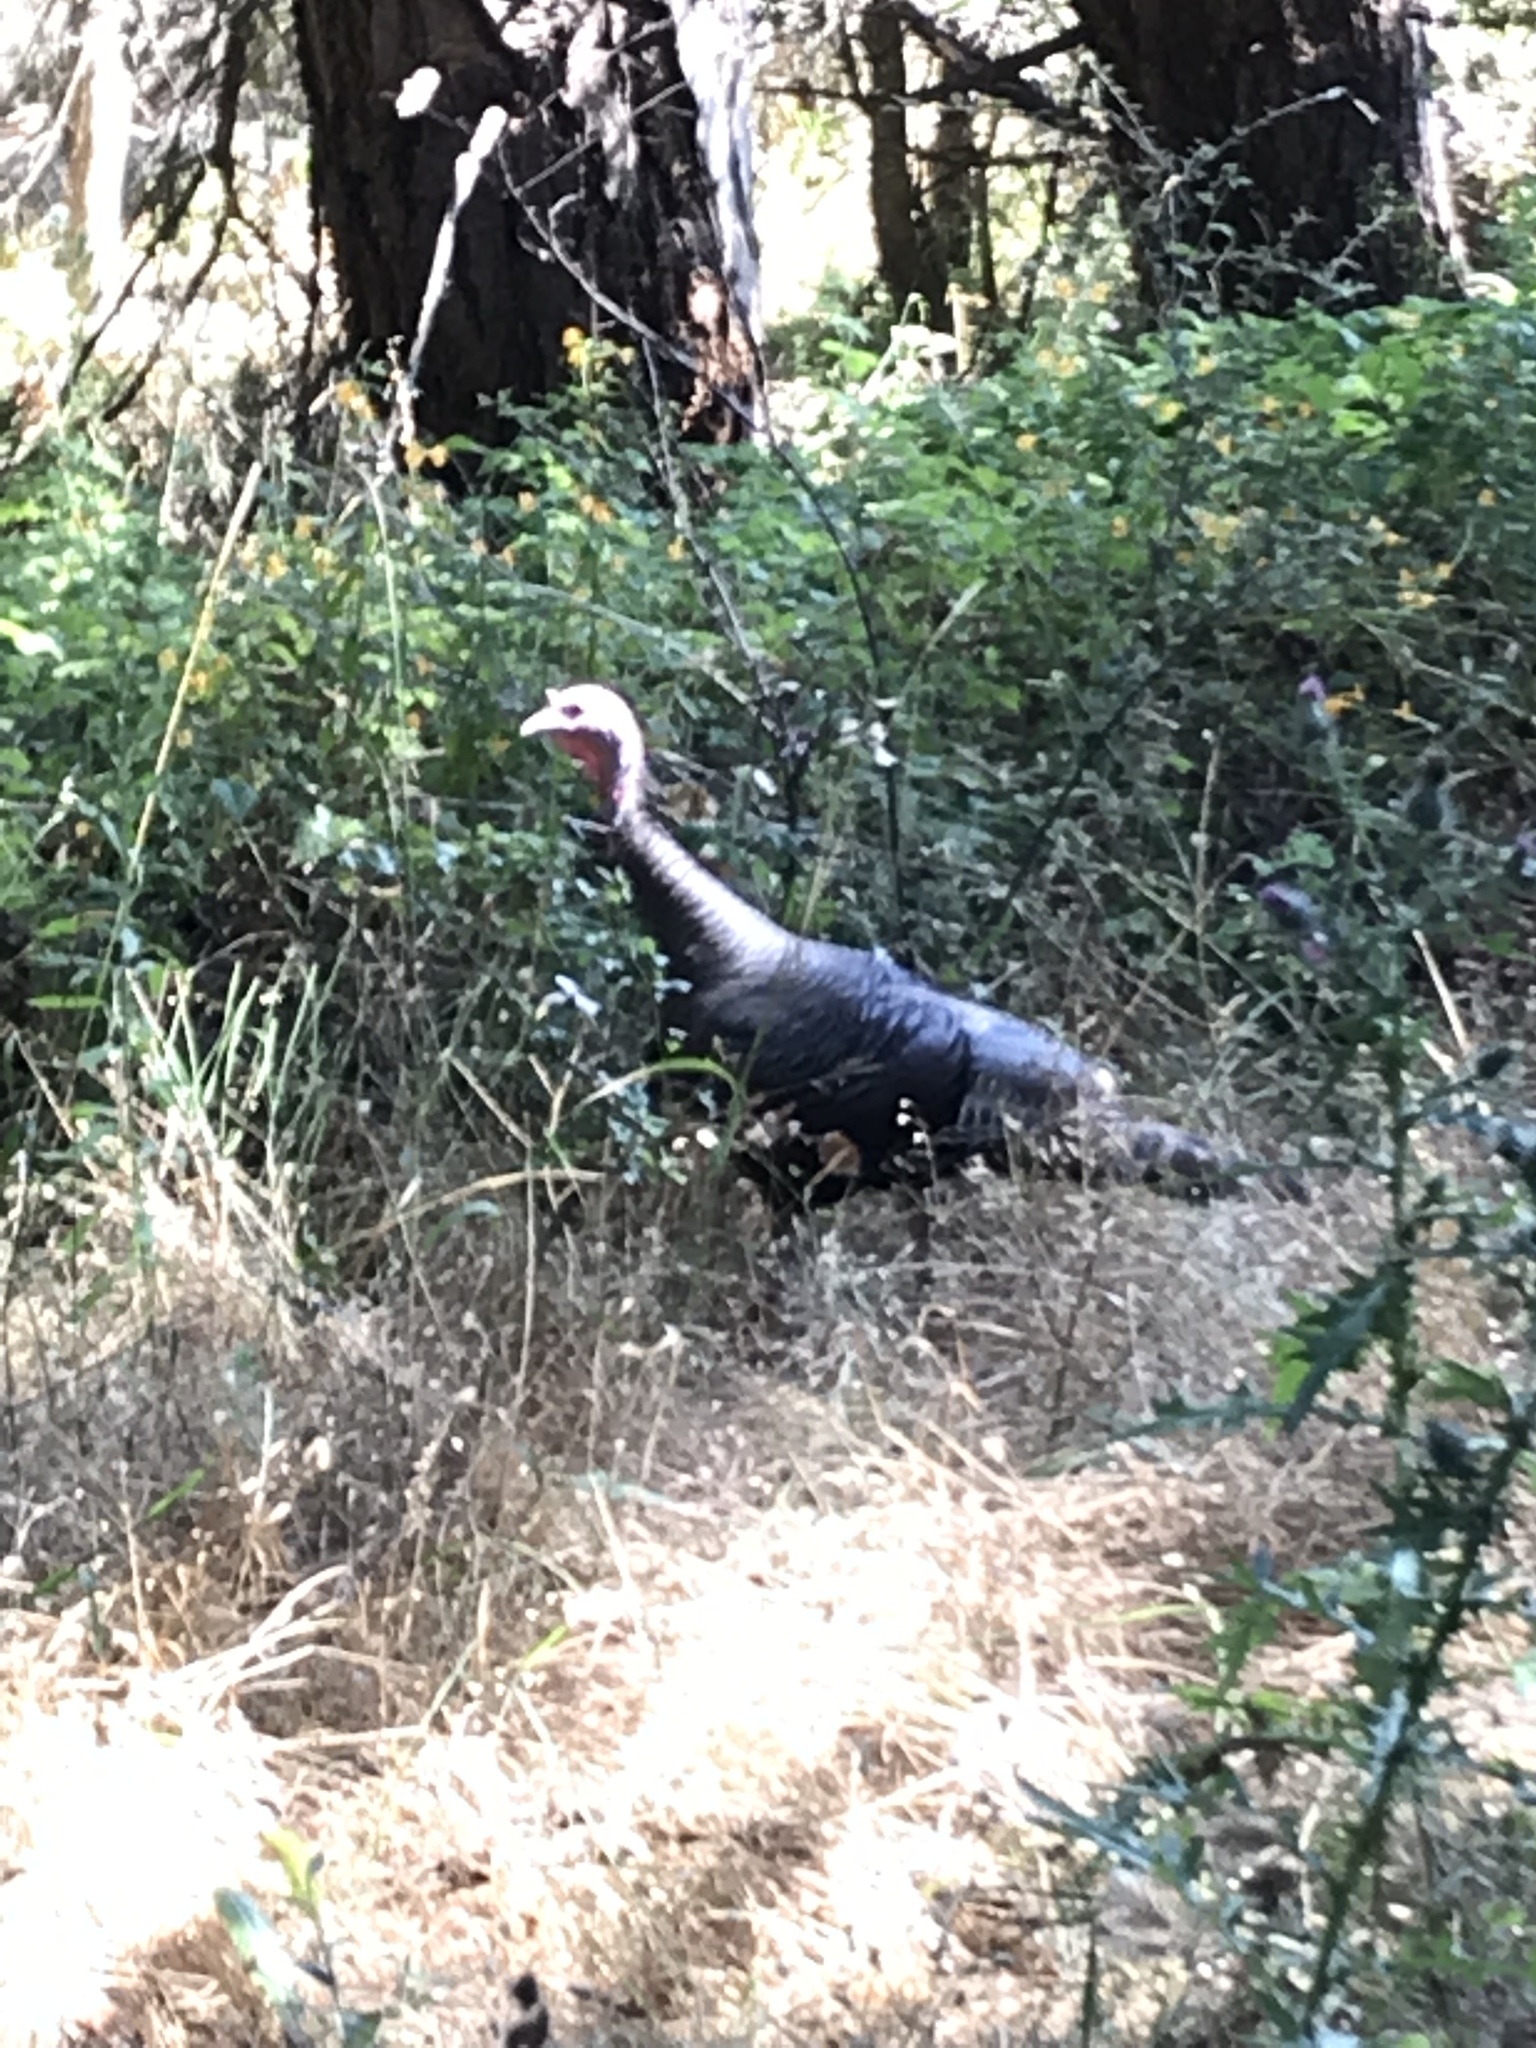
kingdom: Animalia
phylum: Chordata
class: Aves
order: Galliformes
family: Phasianidae
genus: Meleagris
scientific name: Meleagris gallopavo
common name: Wild turkey
